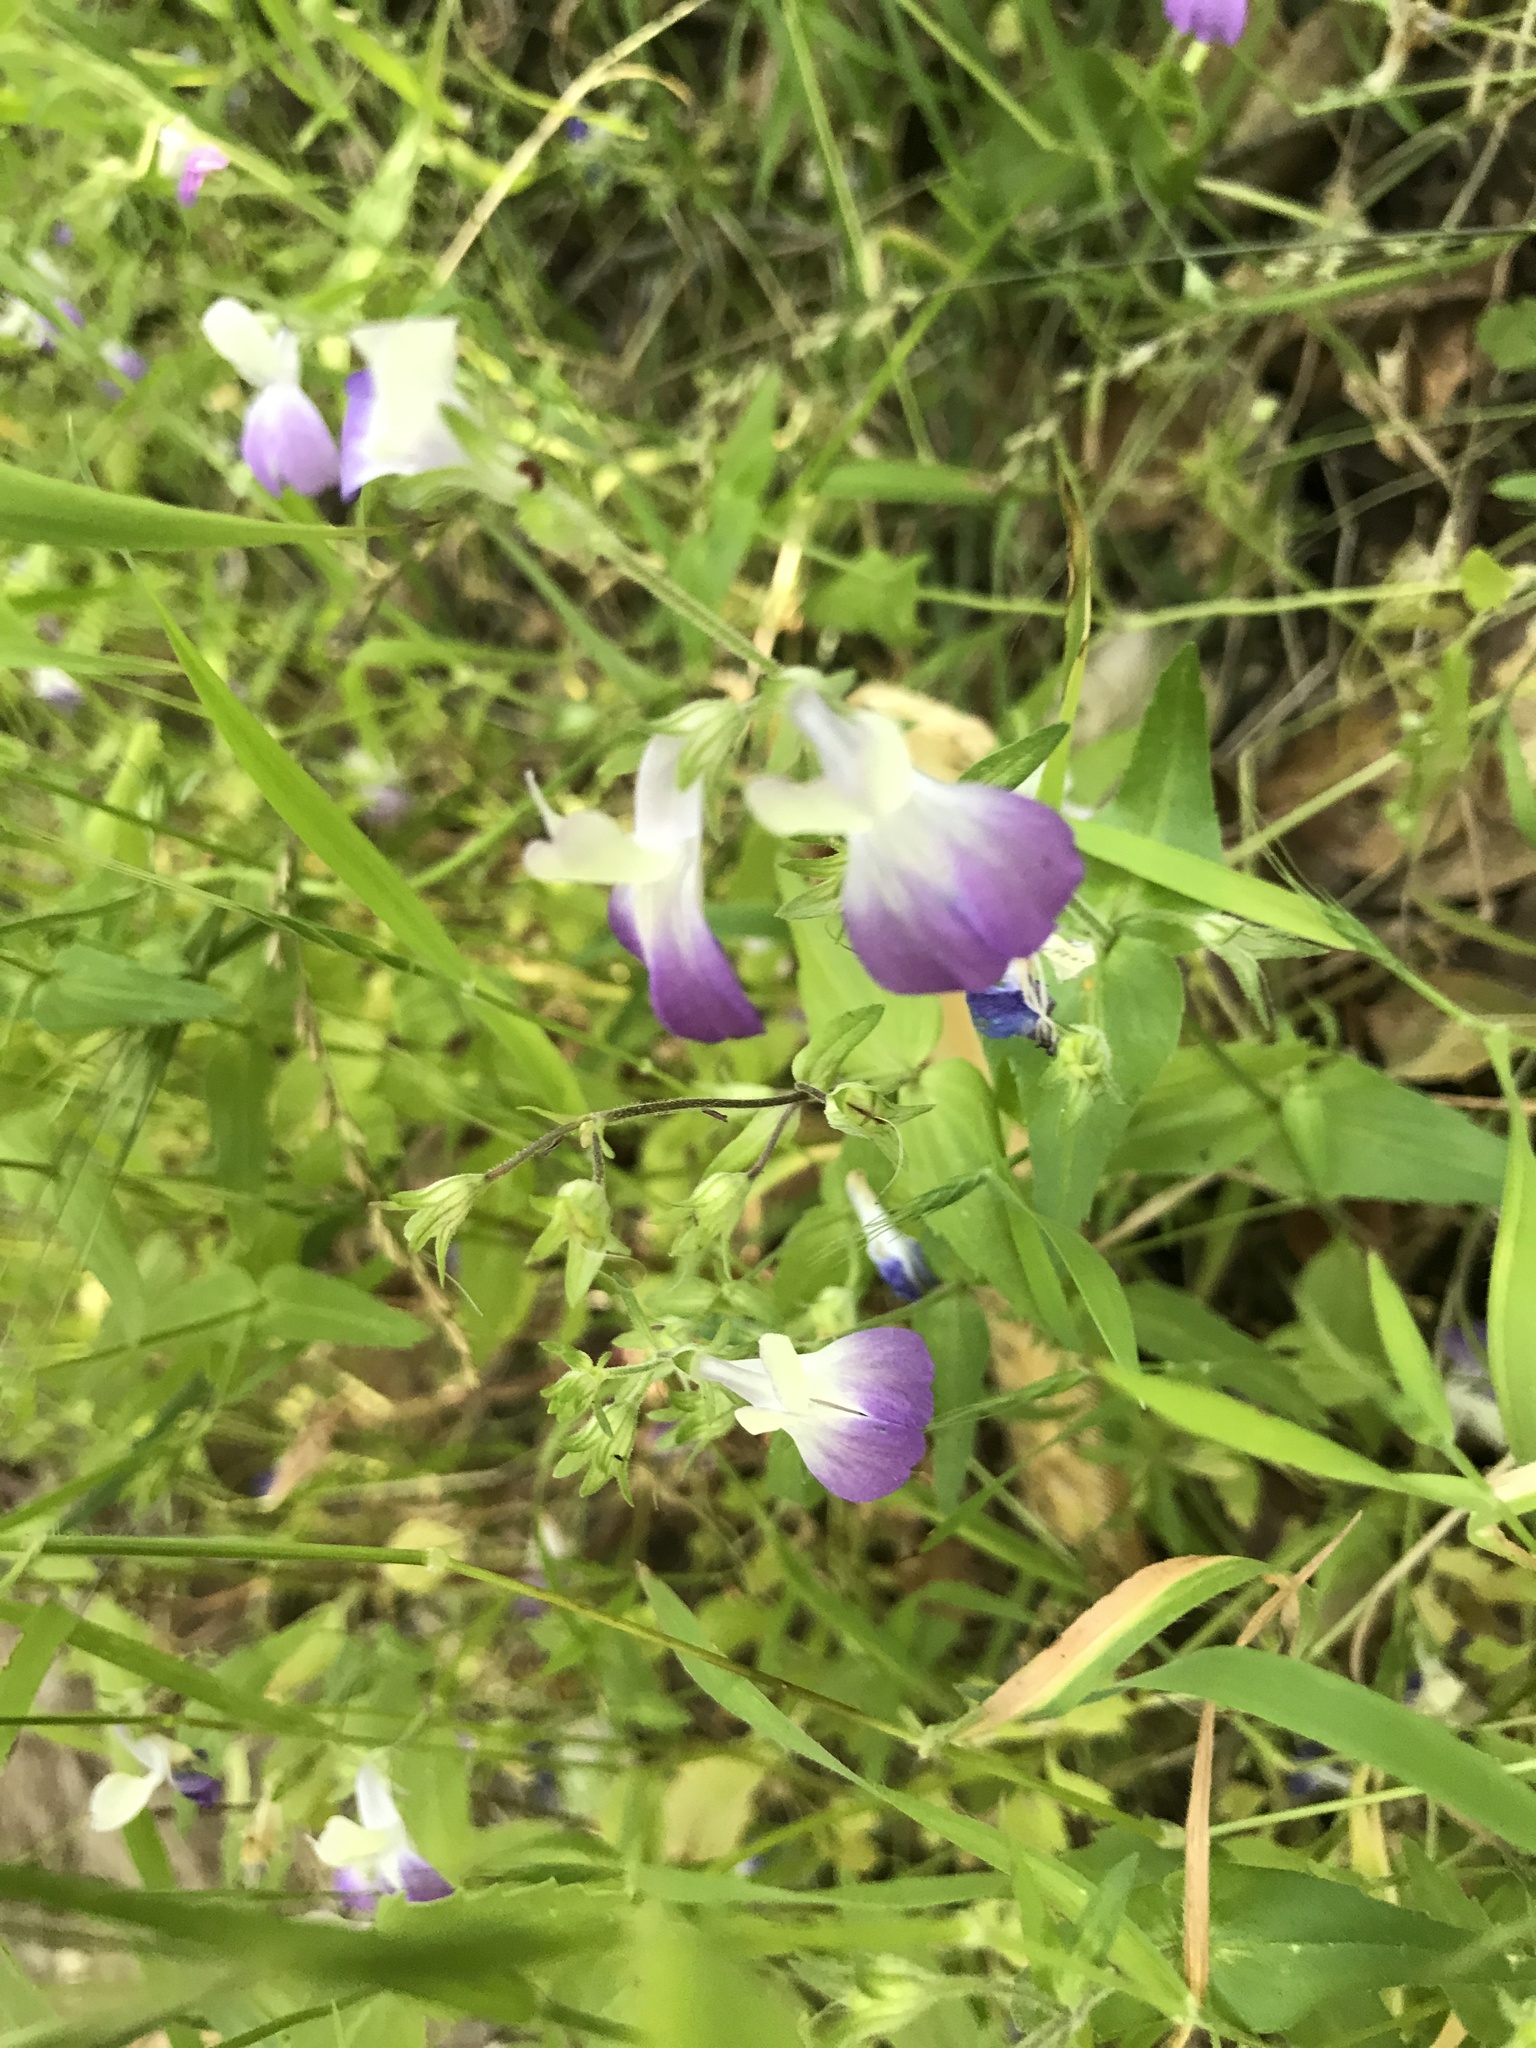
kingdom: Plantae
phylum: Tracheophyta
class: Magnoliopsida
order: Lamiales
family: Plantaginaceae
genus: Collinsia
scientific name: Collinsia multicolor
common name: San francisco collinsia
